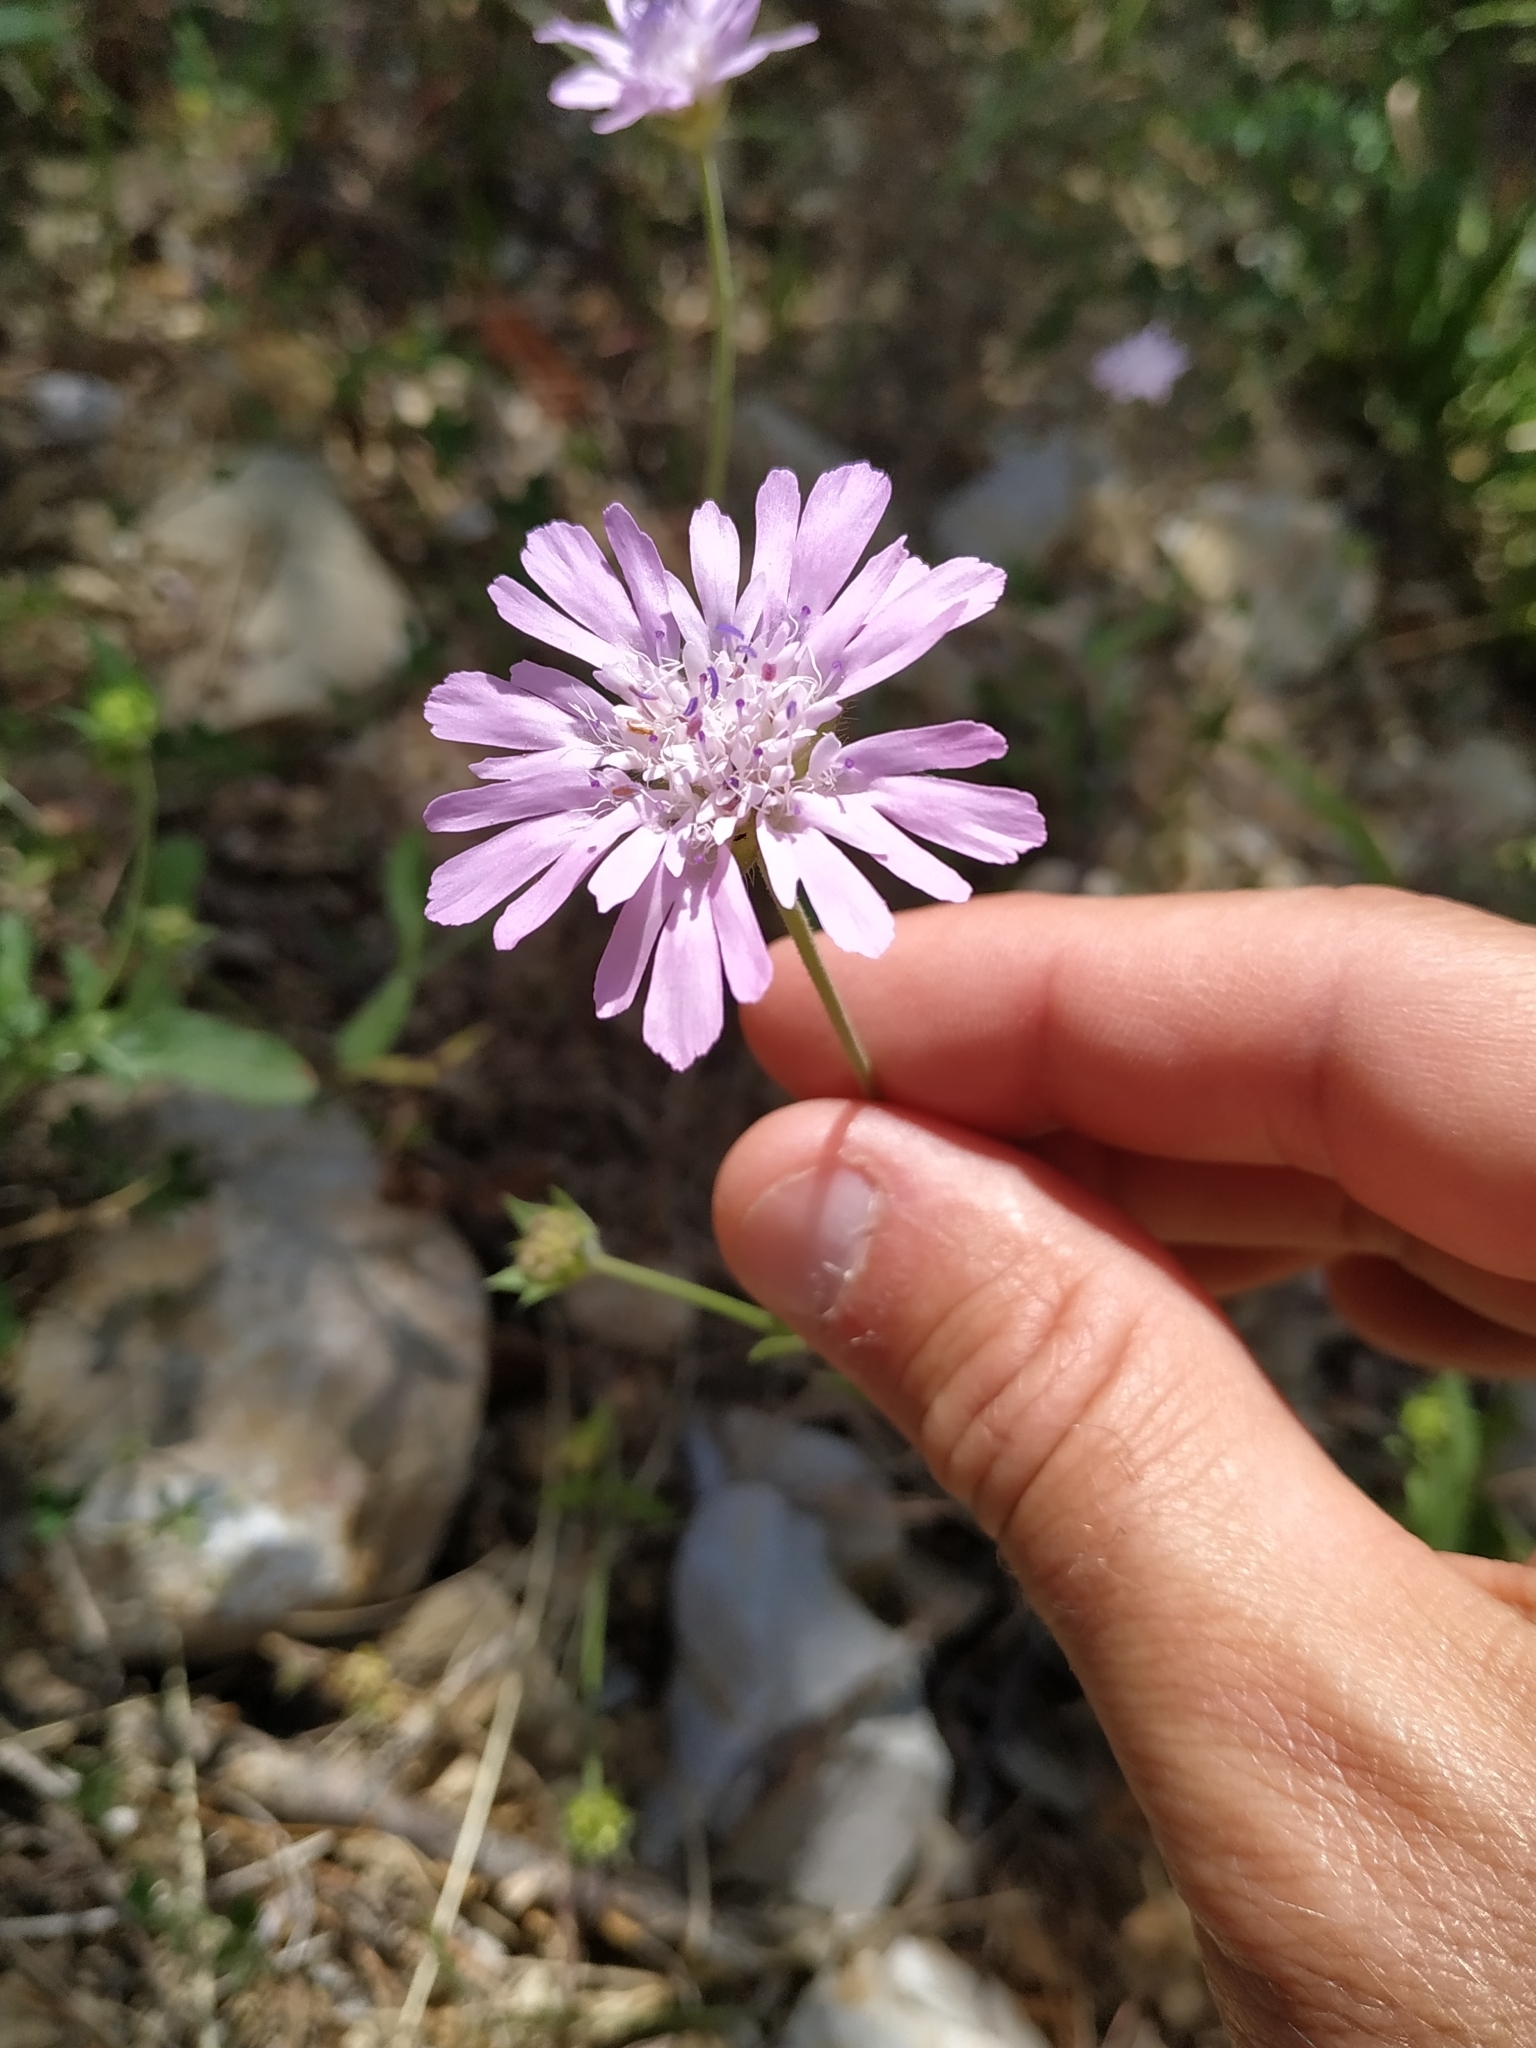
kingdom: Plantae
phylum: Tracheophyta
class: Magnoliopsida
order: Dipsacales
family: Caprifoliaceae
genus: Knautia
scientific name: Knautia integrifolia
